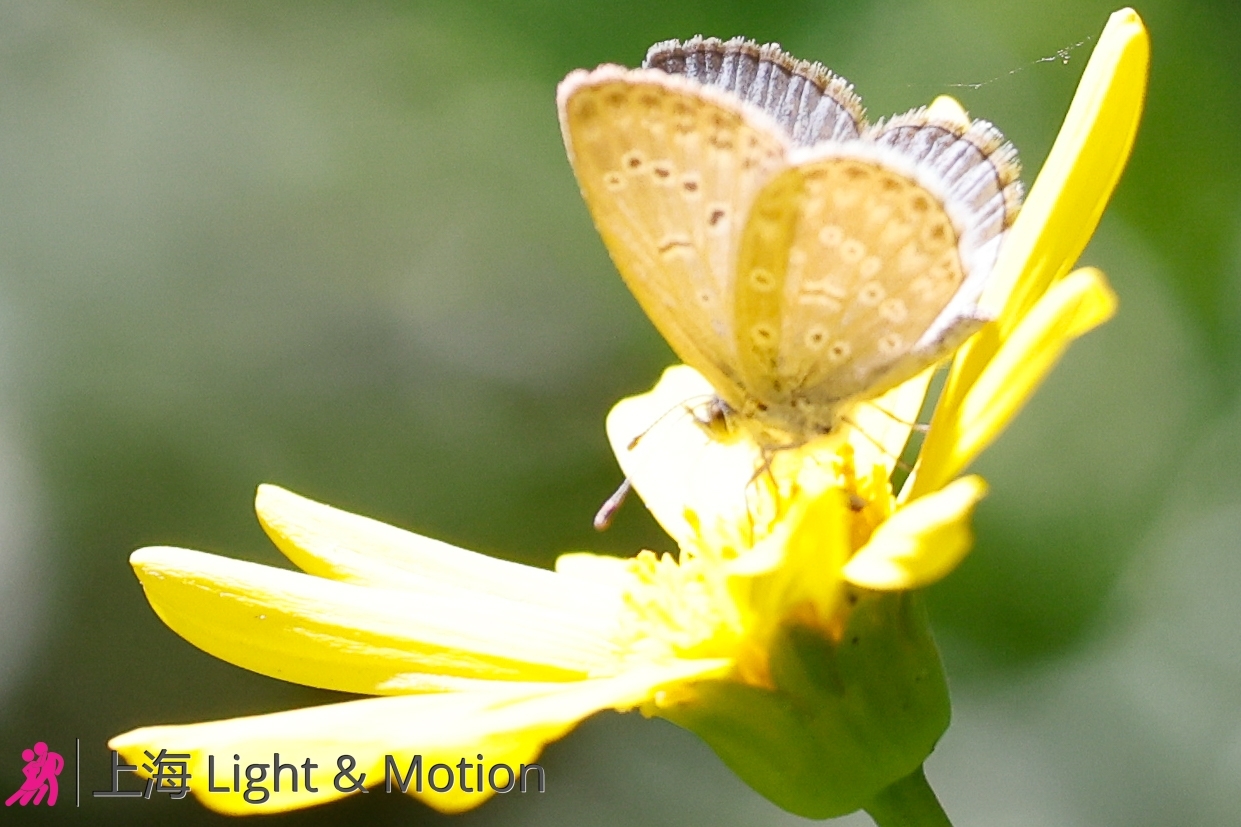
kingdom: Animalia
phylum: Arthropoda
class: Insecta
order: Lepidoptera
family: Lycaenidae
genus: Pseudozizeeria
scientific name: Pseudozizeeria maha
